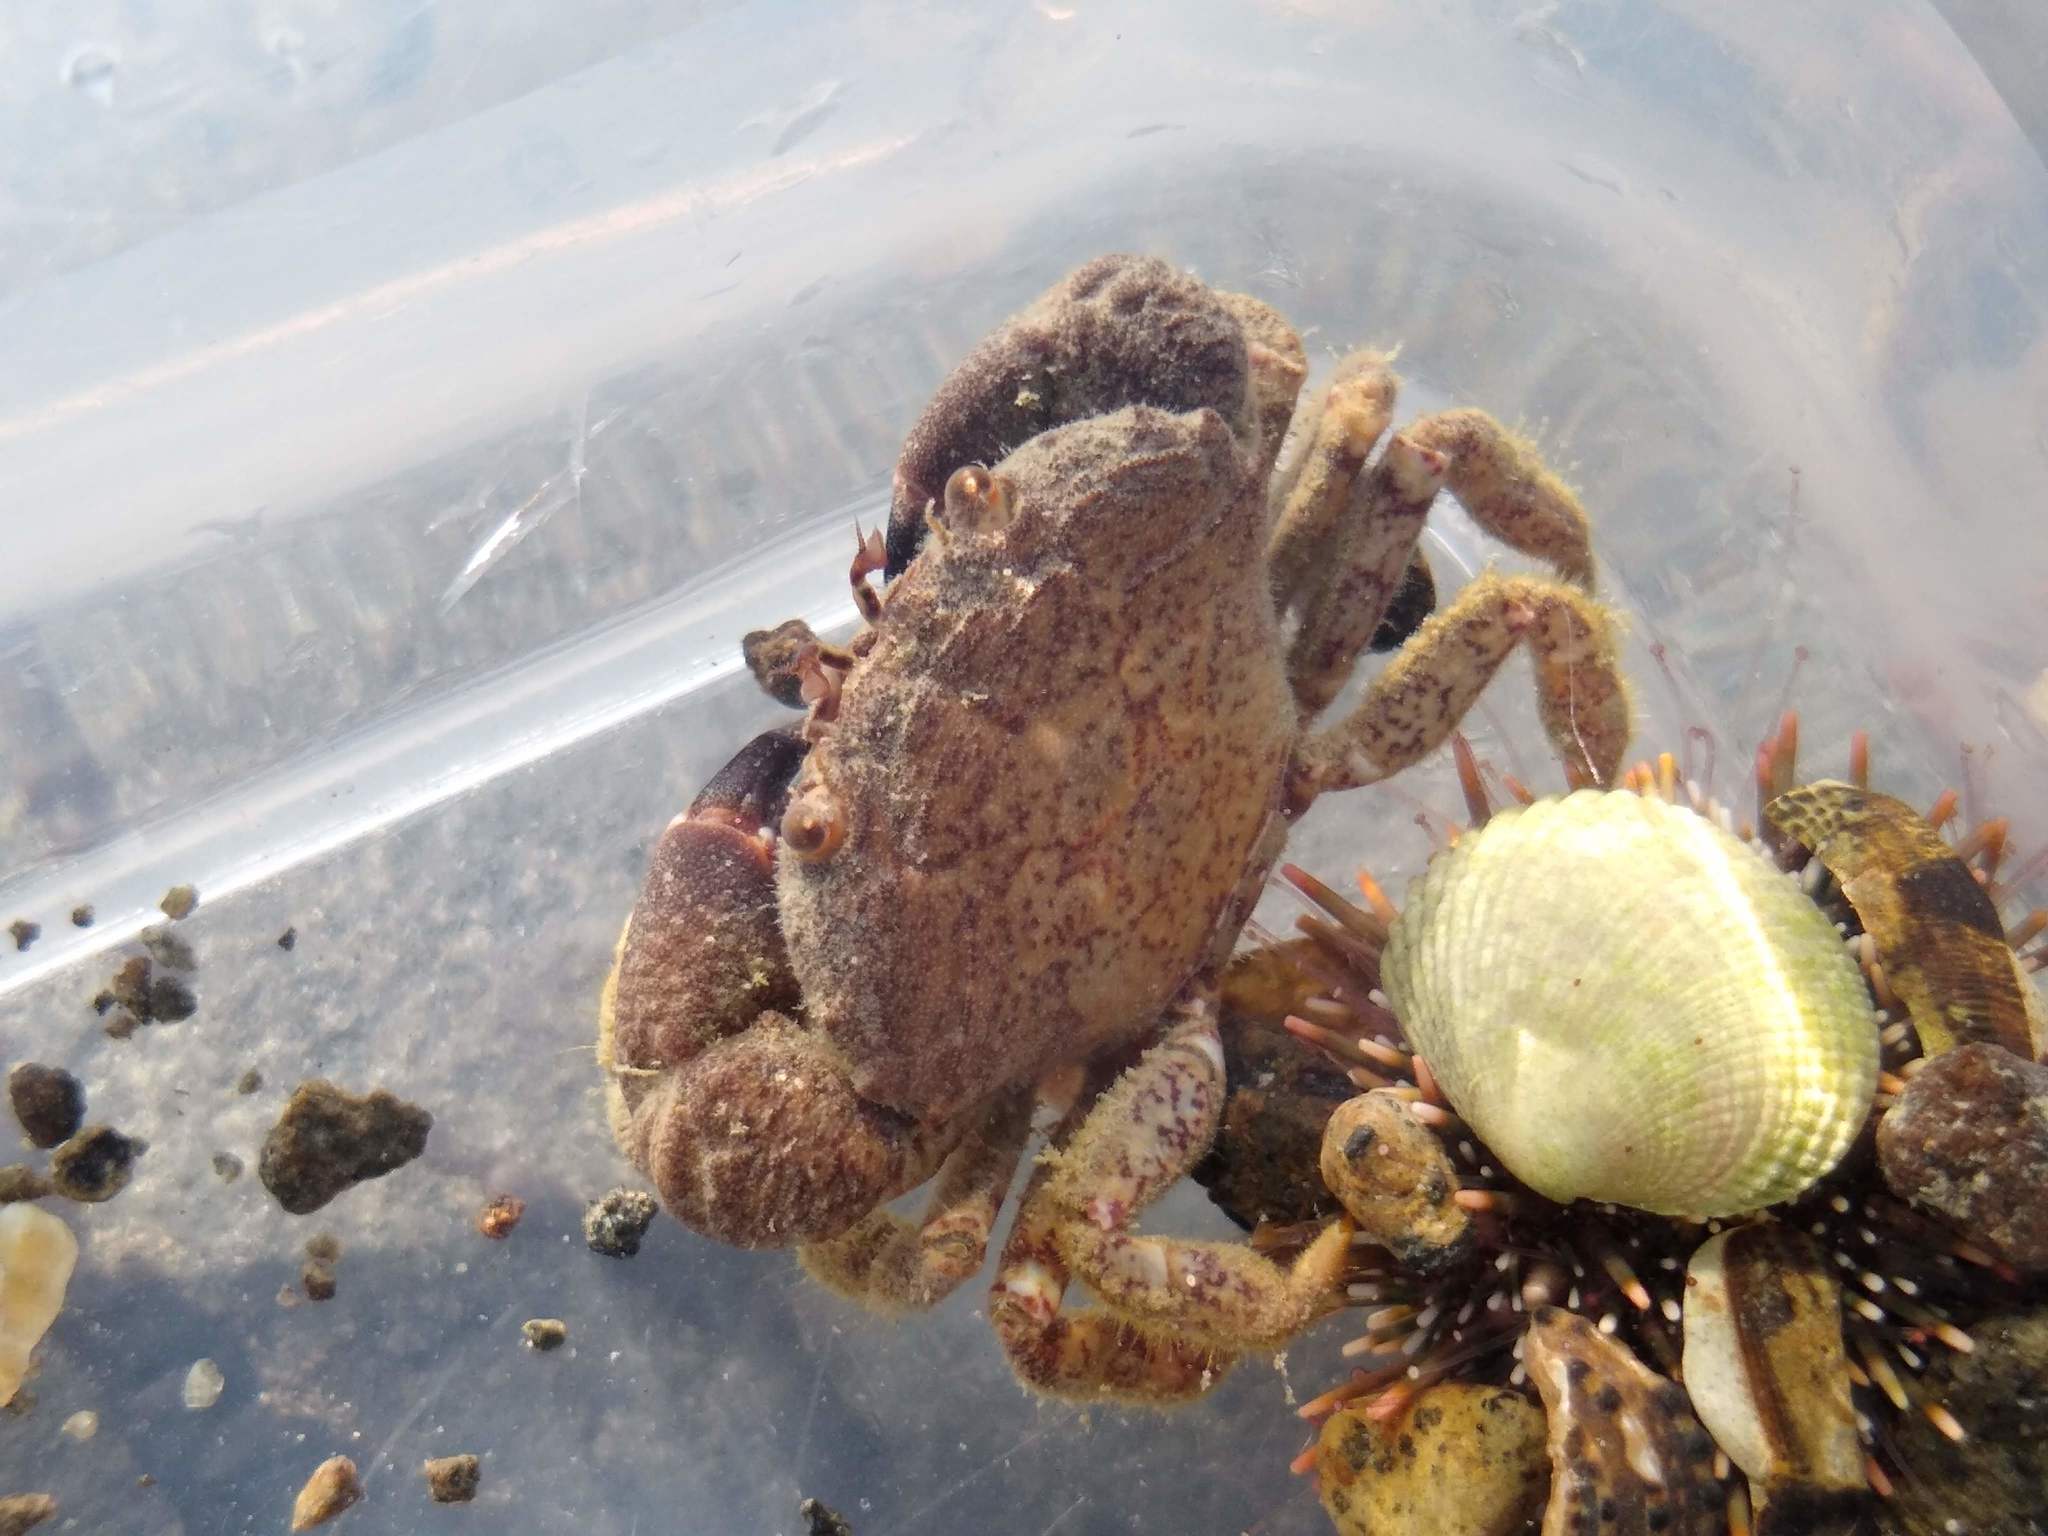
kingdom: Animalia
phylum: Arthropoda
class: Malacostraca
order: Decapoda
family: Oziidae
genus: Ozius
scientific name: Ozius deplanatus
